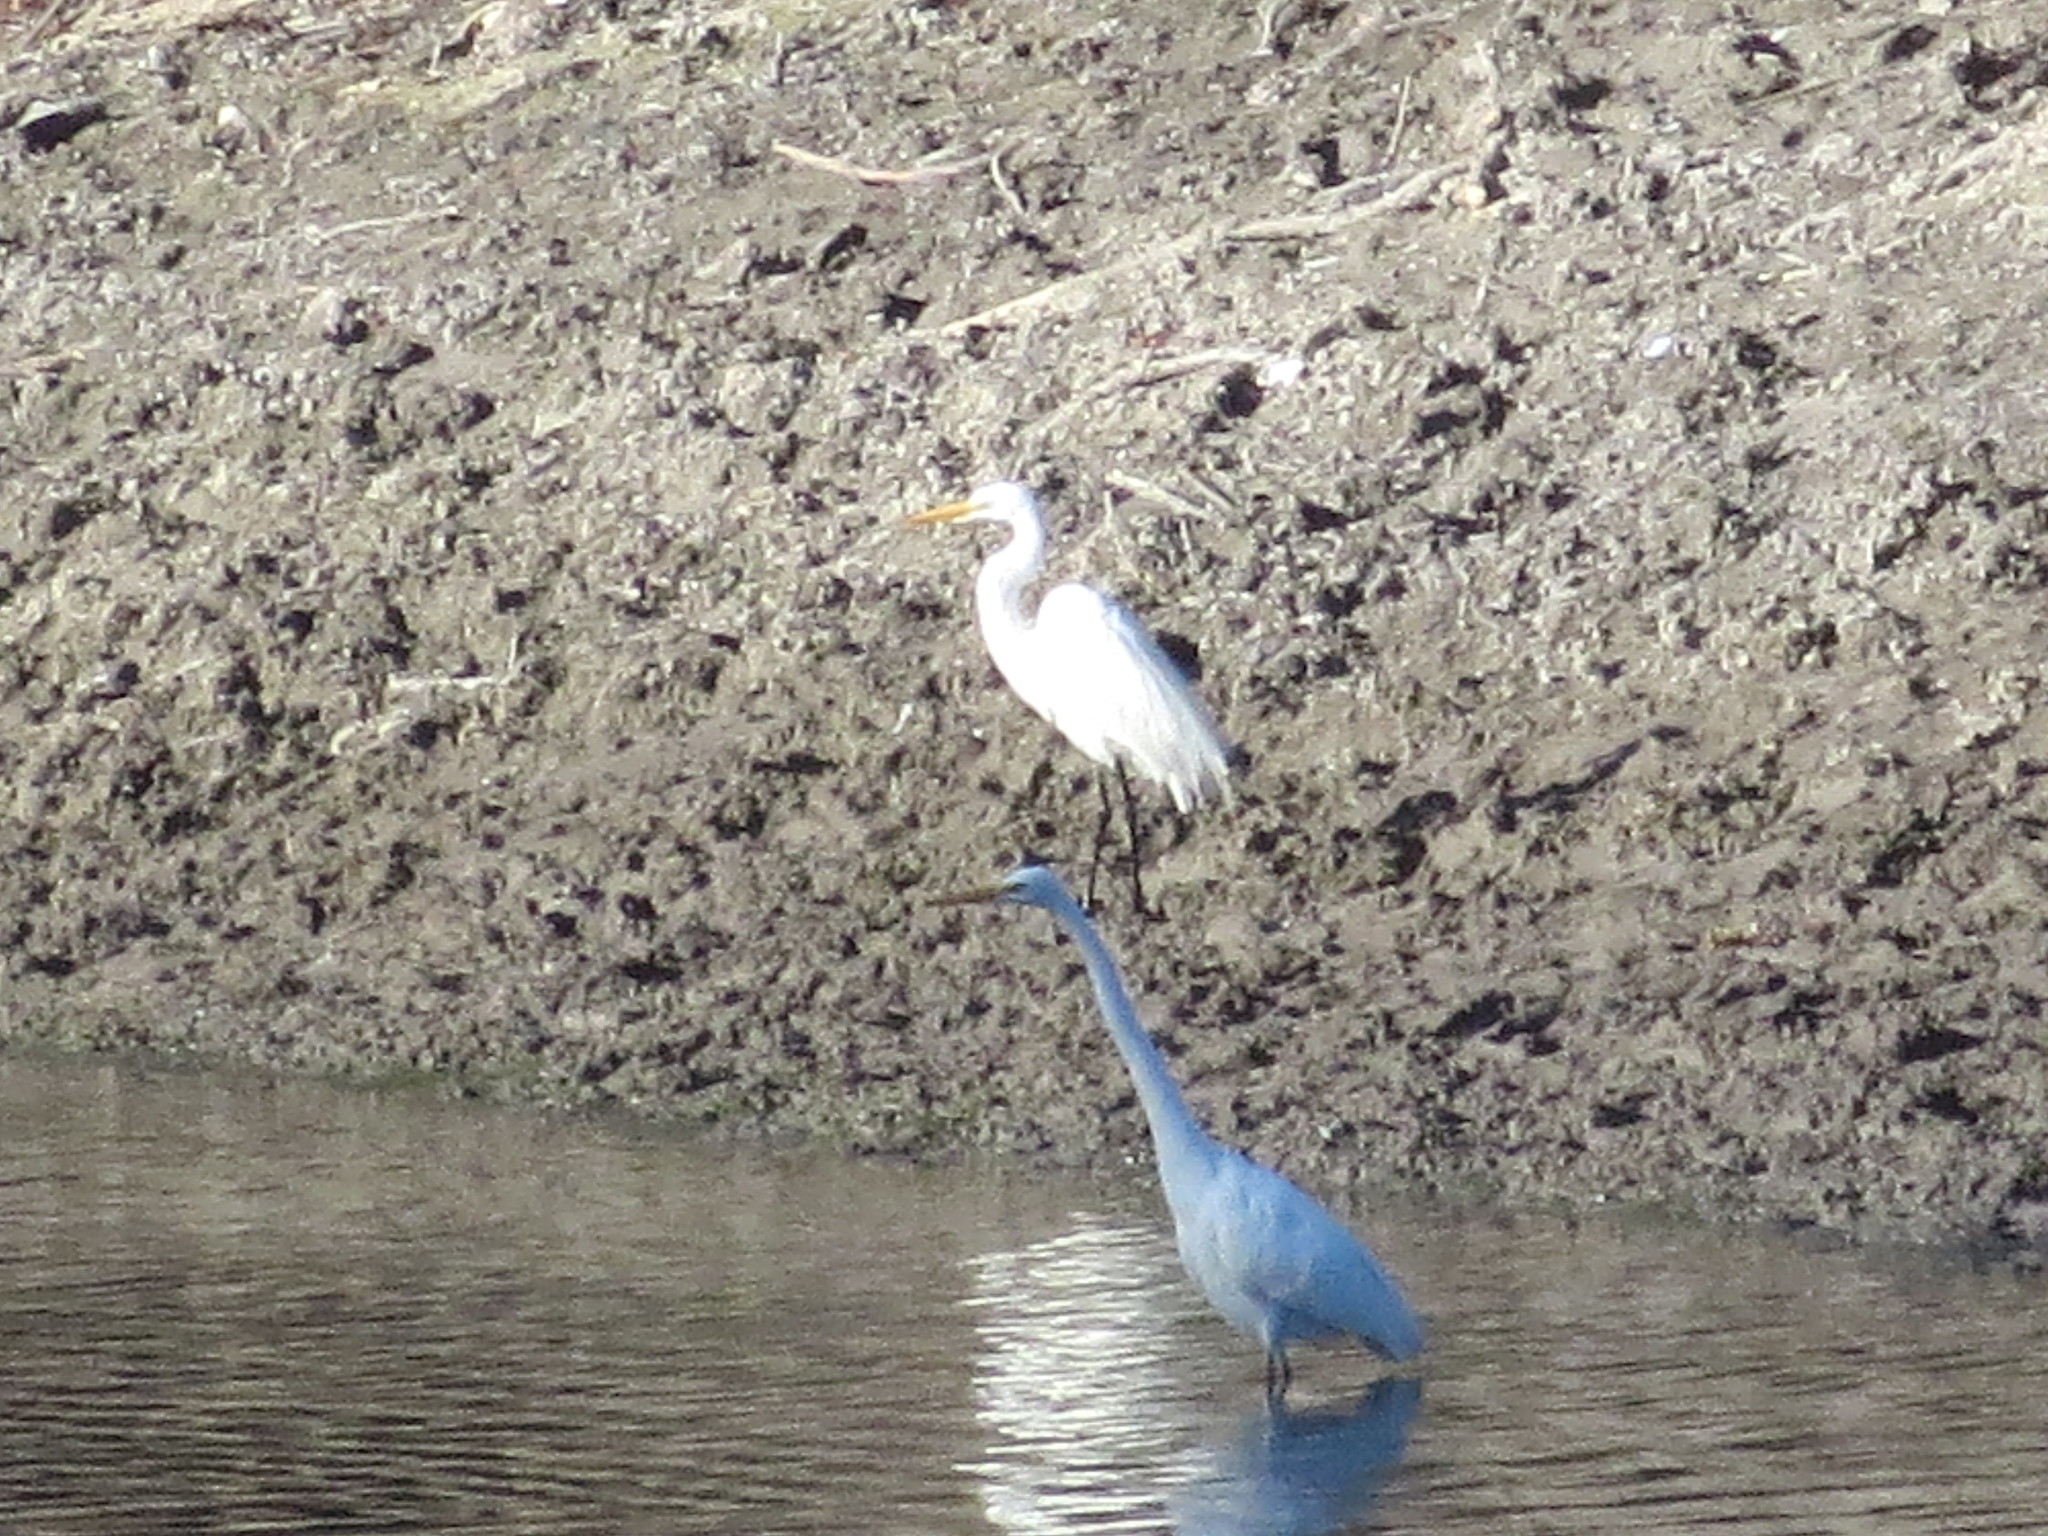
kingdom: Animalia
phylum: Chordata
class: Aves
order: Pelecaniformes
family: Ardeidae
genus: Ardea
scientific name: Ardea alba
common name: Great egret
